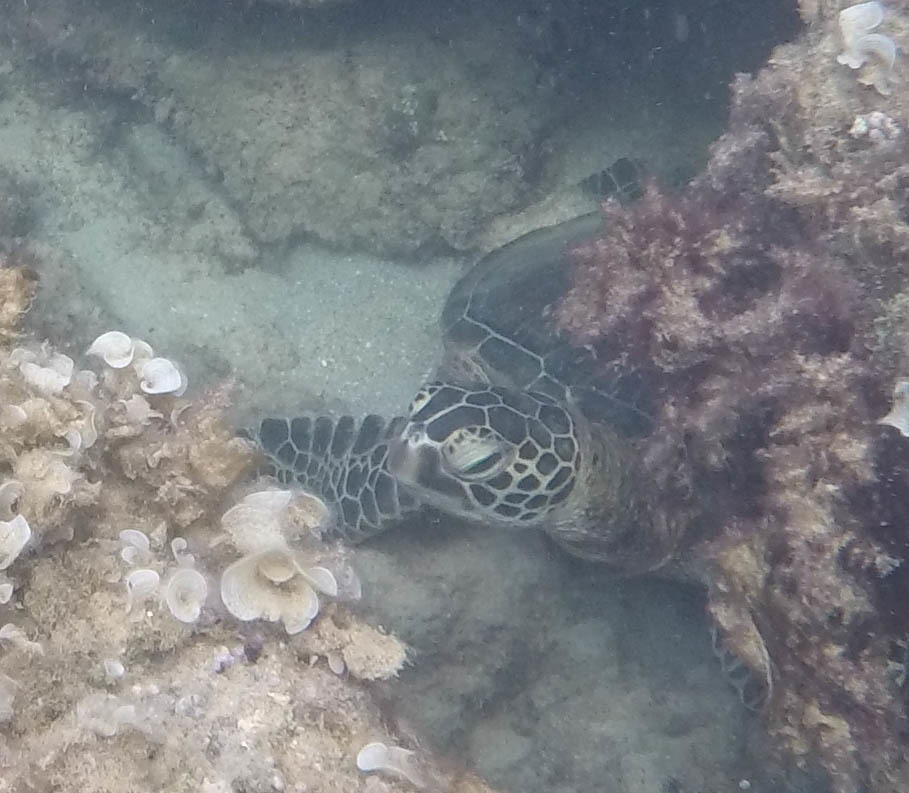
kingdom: Animalia
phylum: Chordata
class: Testudines
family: Cheloniidae
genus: Chelonia
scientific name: Chelonia mydas
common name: Green turtle
